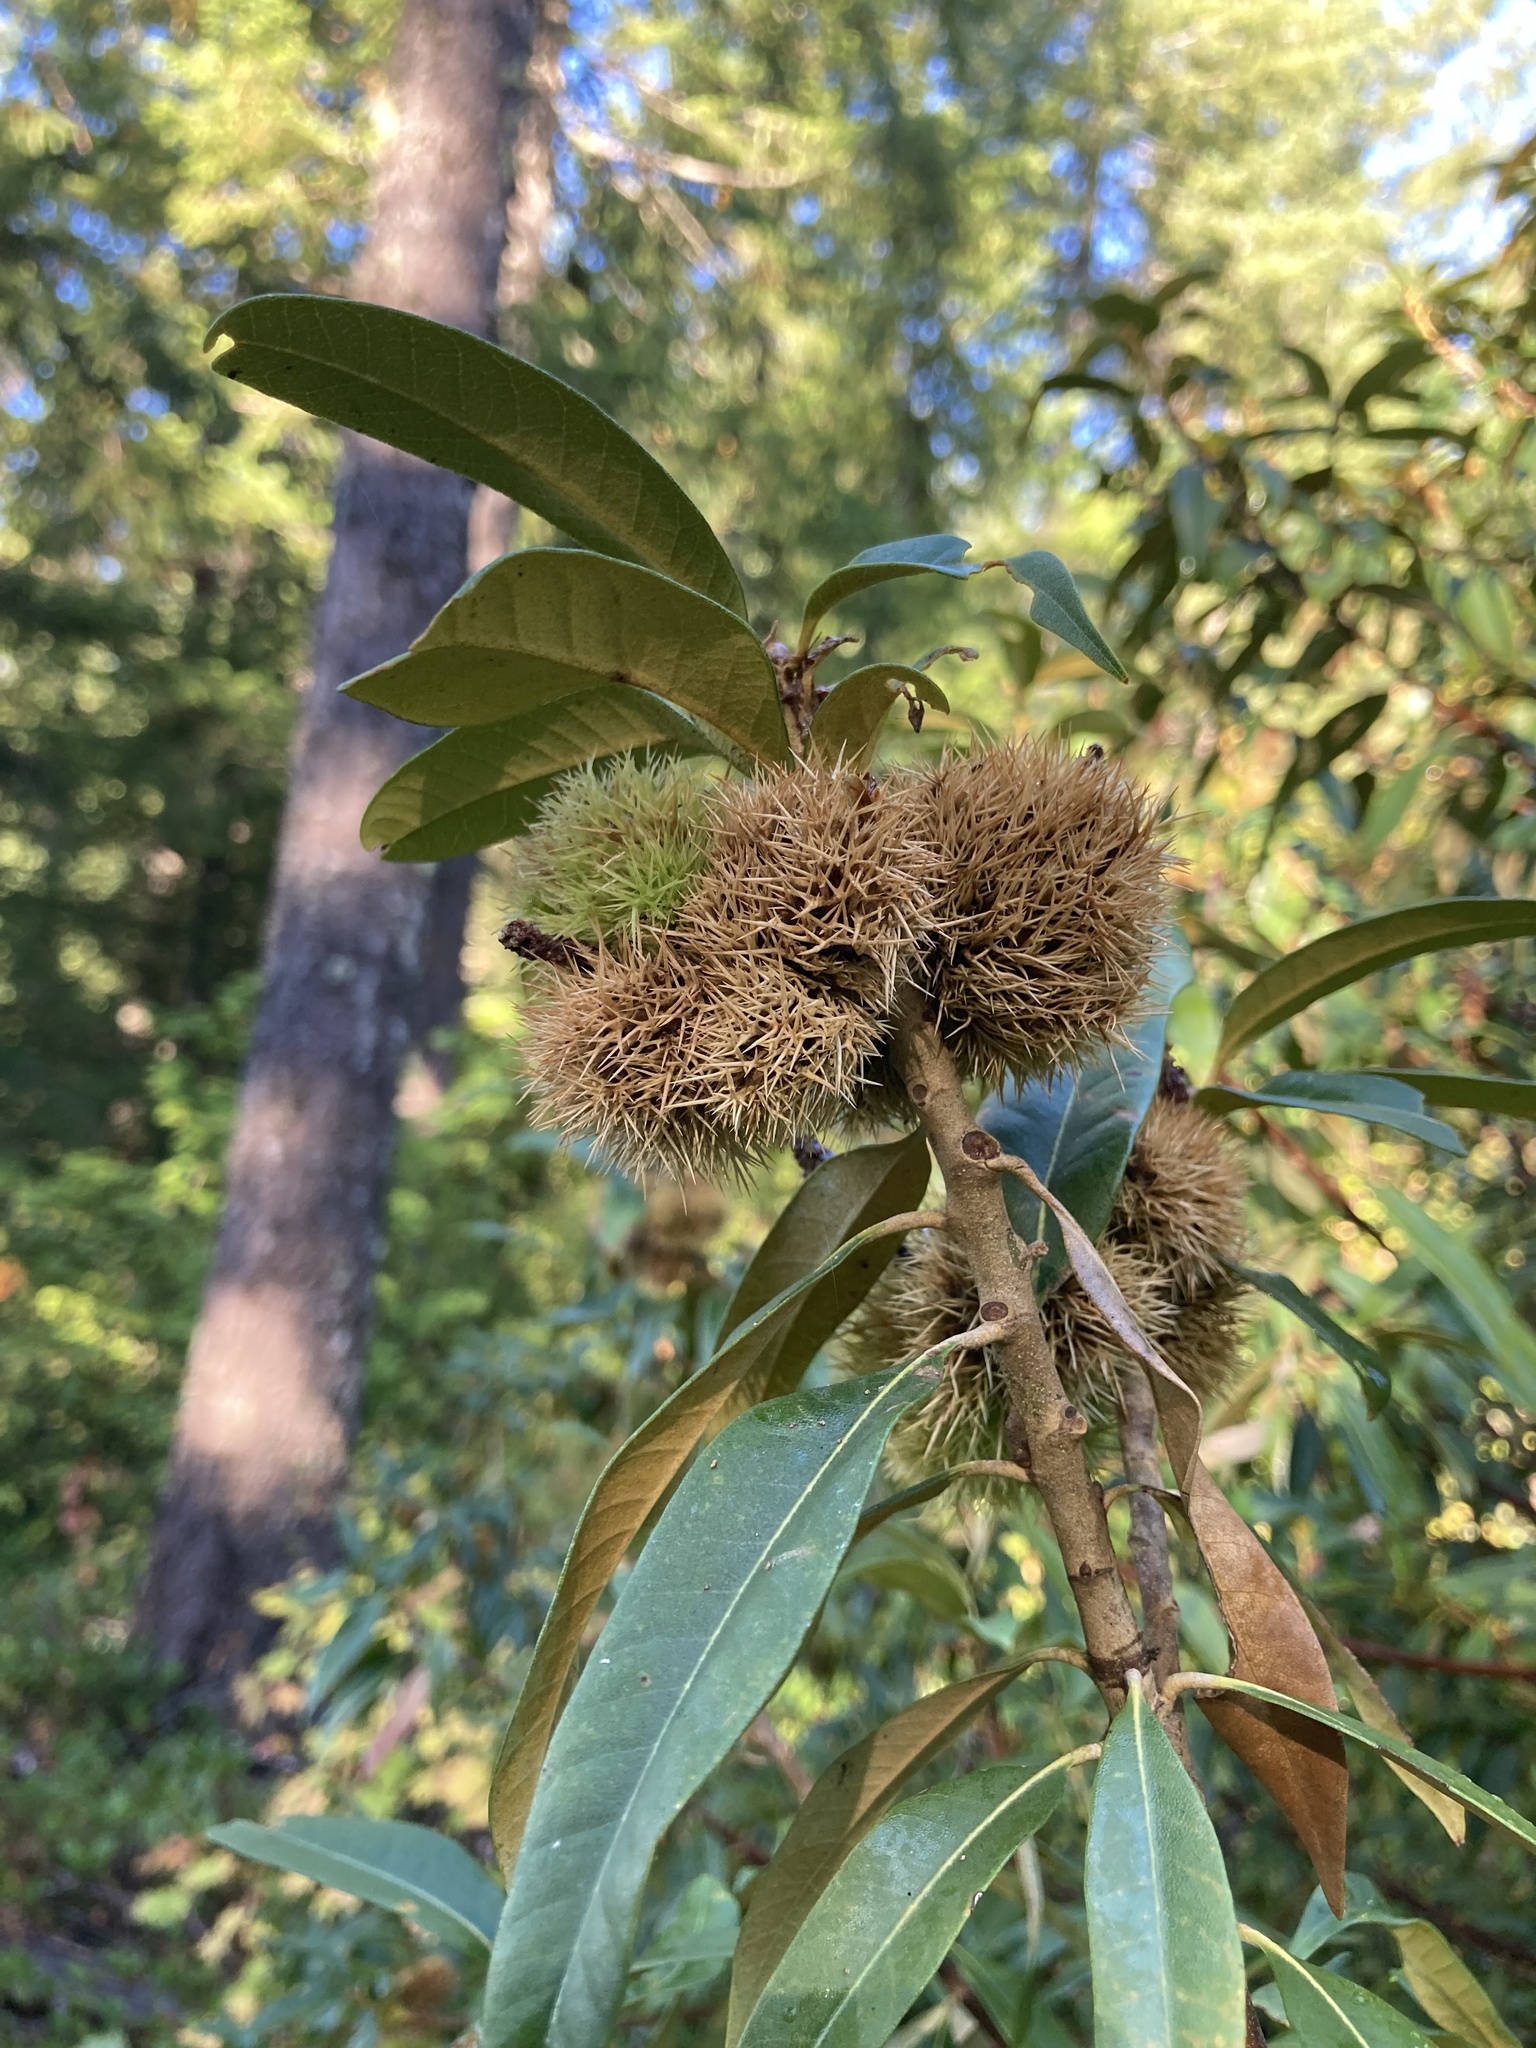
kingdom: Plantae
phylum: Tracheophyta
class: Magnoliopsida
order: Fagales
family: Fagaceae
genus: Chrysolepis
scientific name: Chrysolepis chrysophylla
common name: Giant chinquapin
